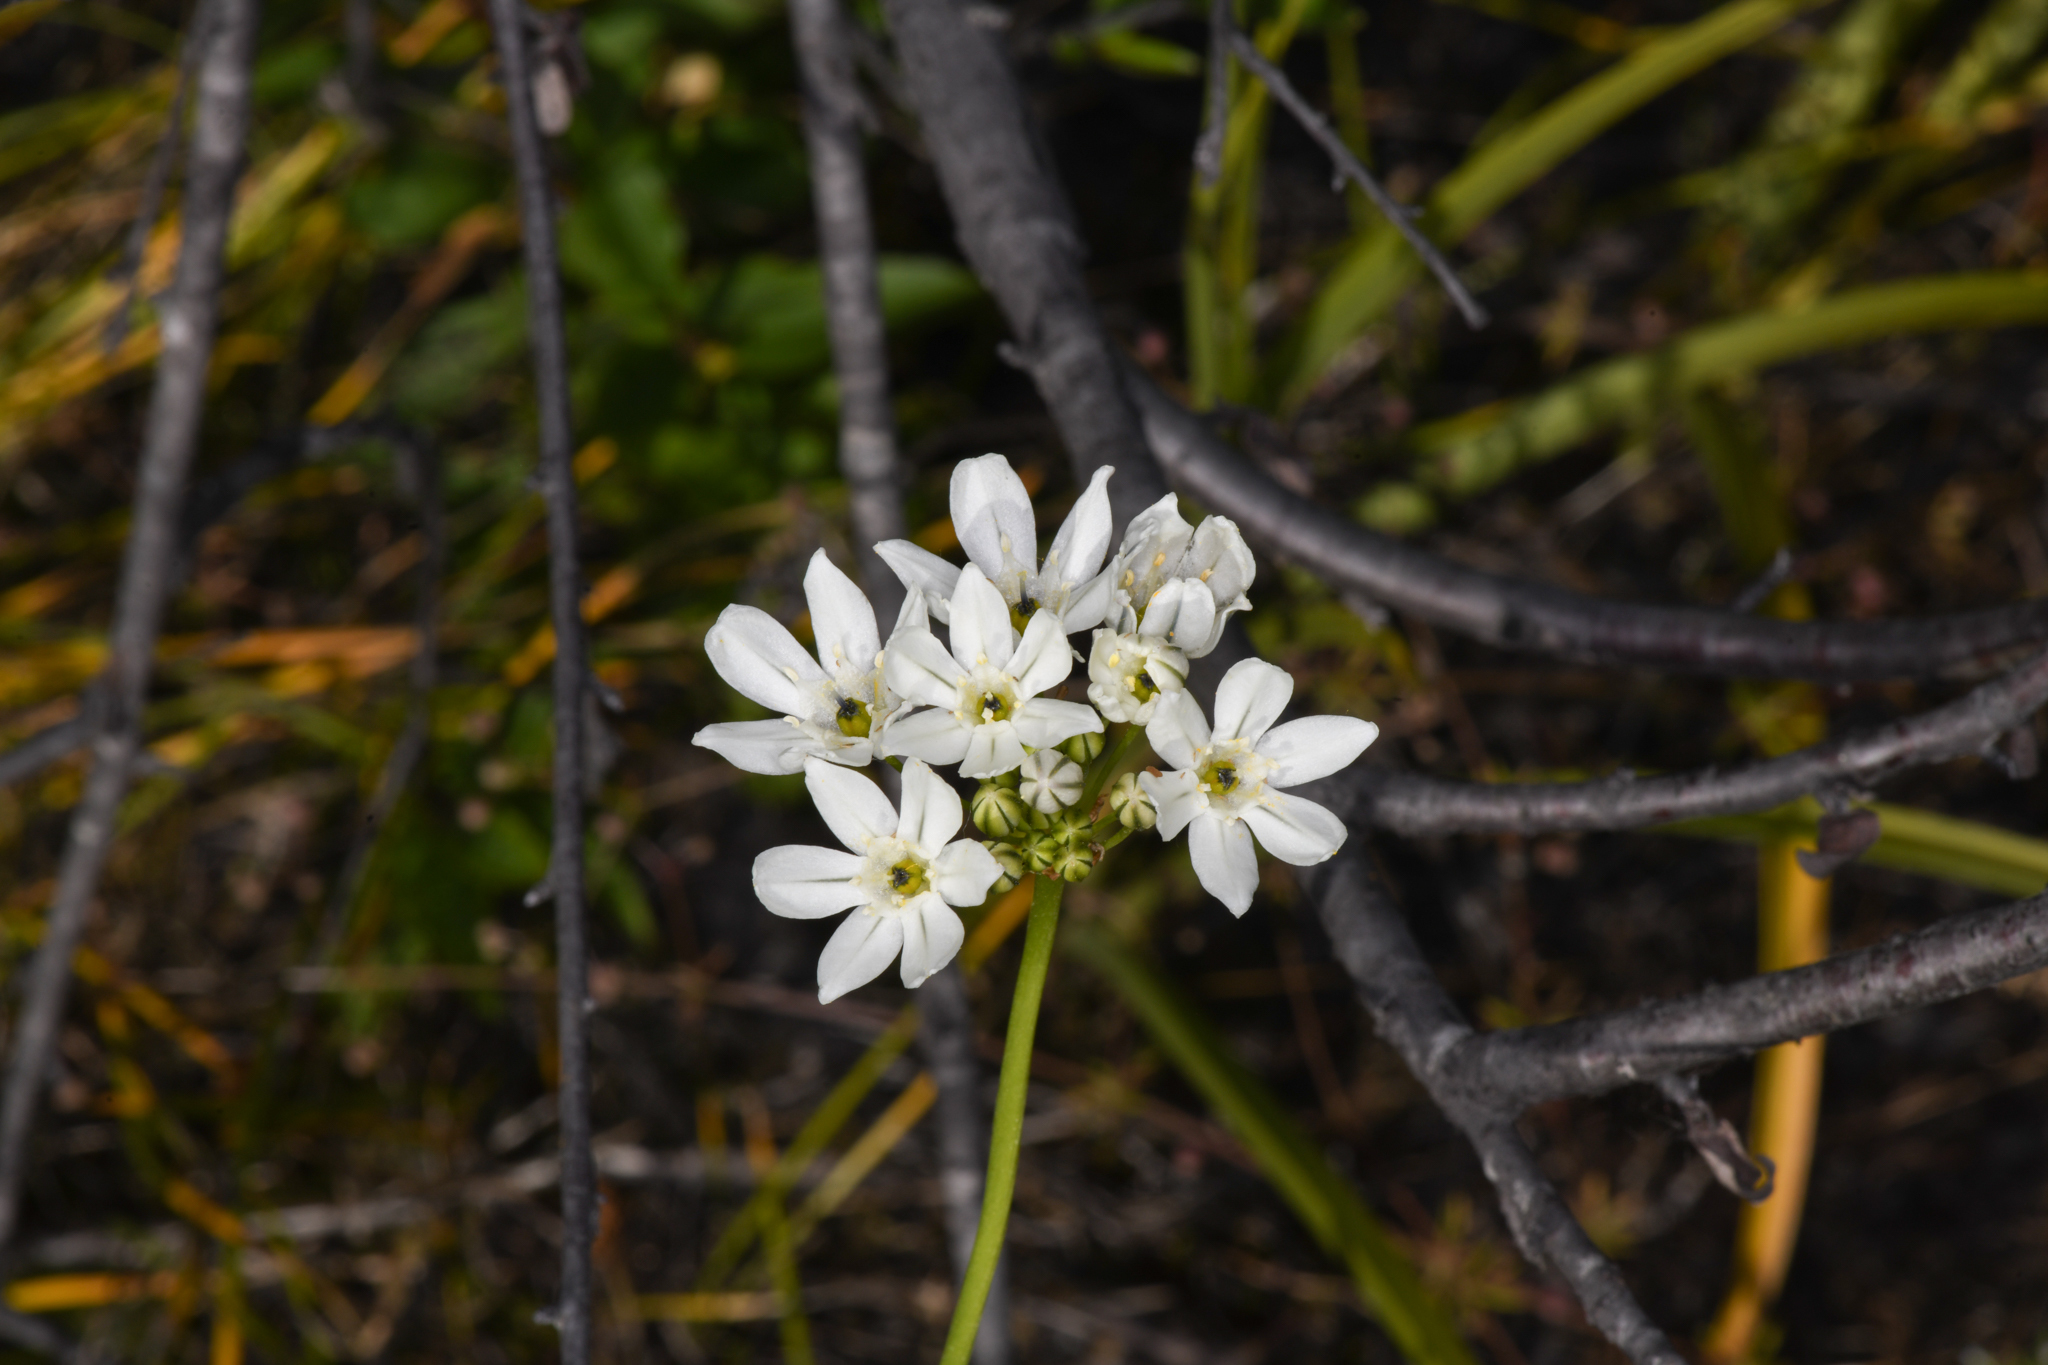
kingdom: Plantae
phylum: Tracheophyta
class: Liliopsida
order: Asparagales
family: Asparagaceae
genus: Triteleia
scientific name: Triteleia hyacinthina
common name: White brodiaea
